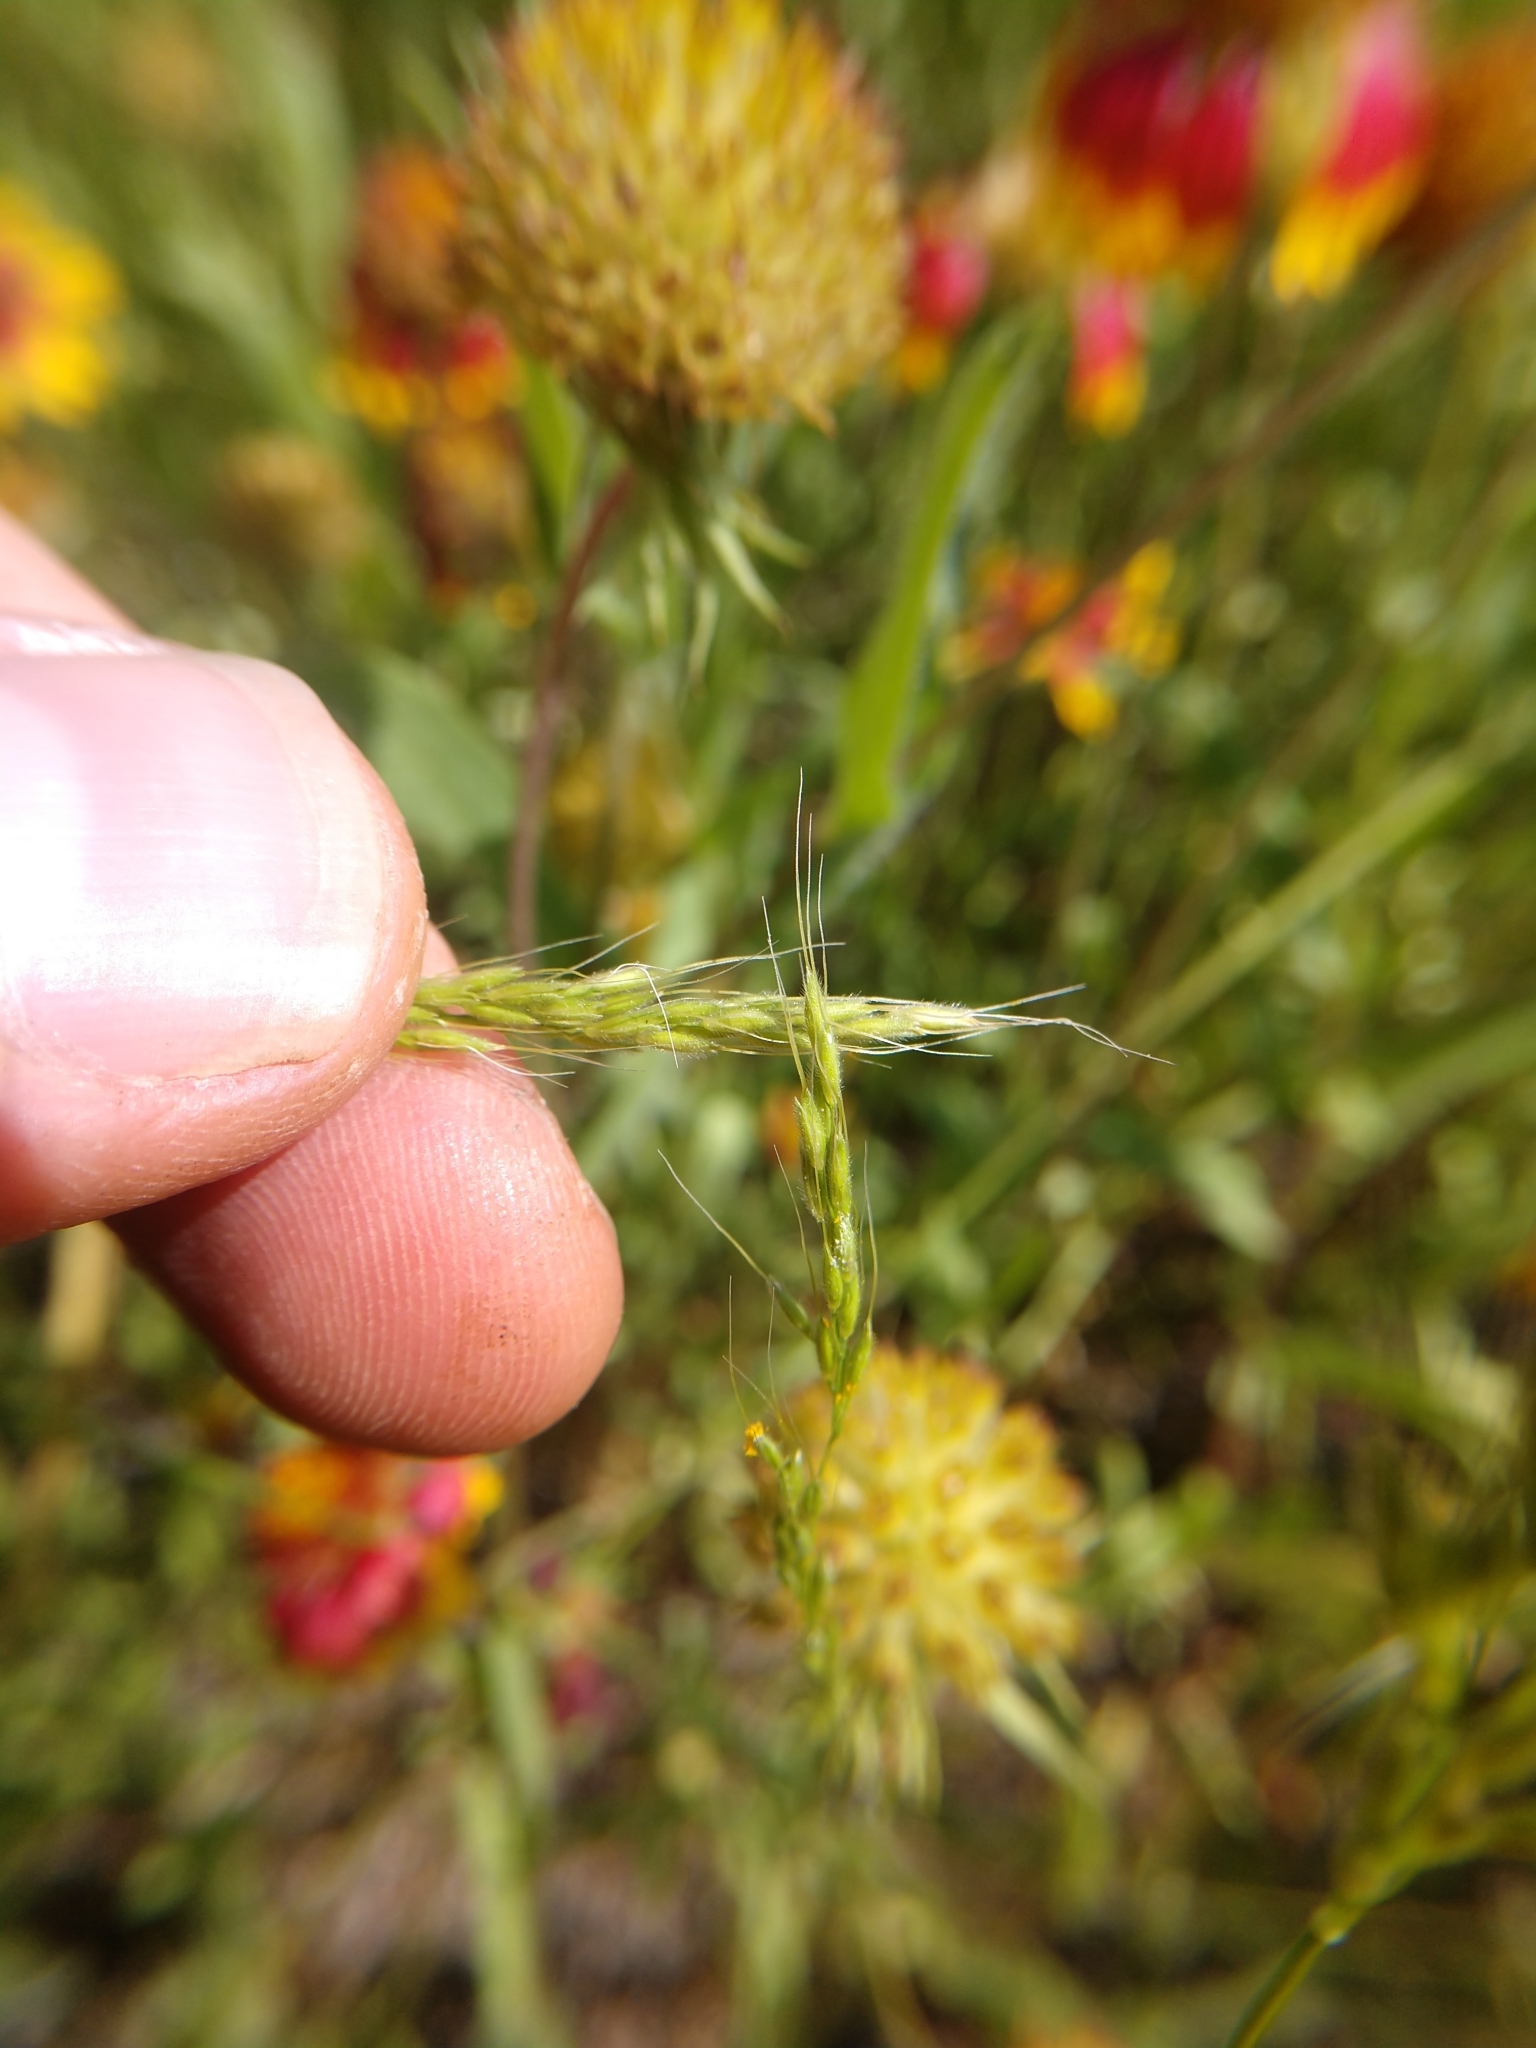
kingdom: Plantae
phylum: Tracheophyta
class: Liliopsida
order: Poales
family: Poaceae
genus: Limnodea
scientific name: Limnodea arkansana
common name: Ozark-grass
